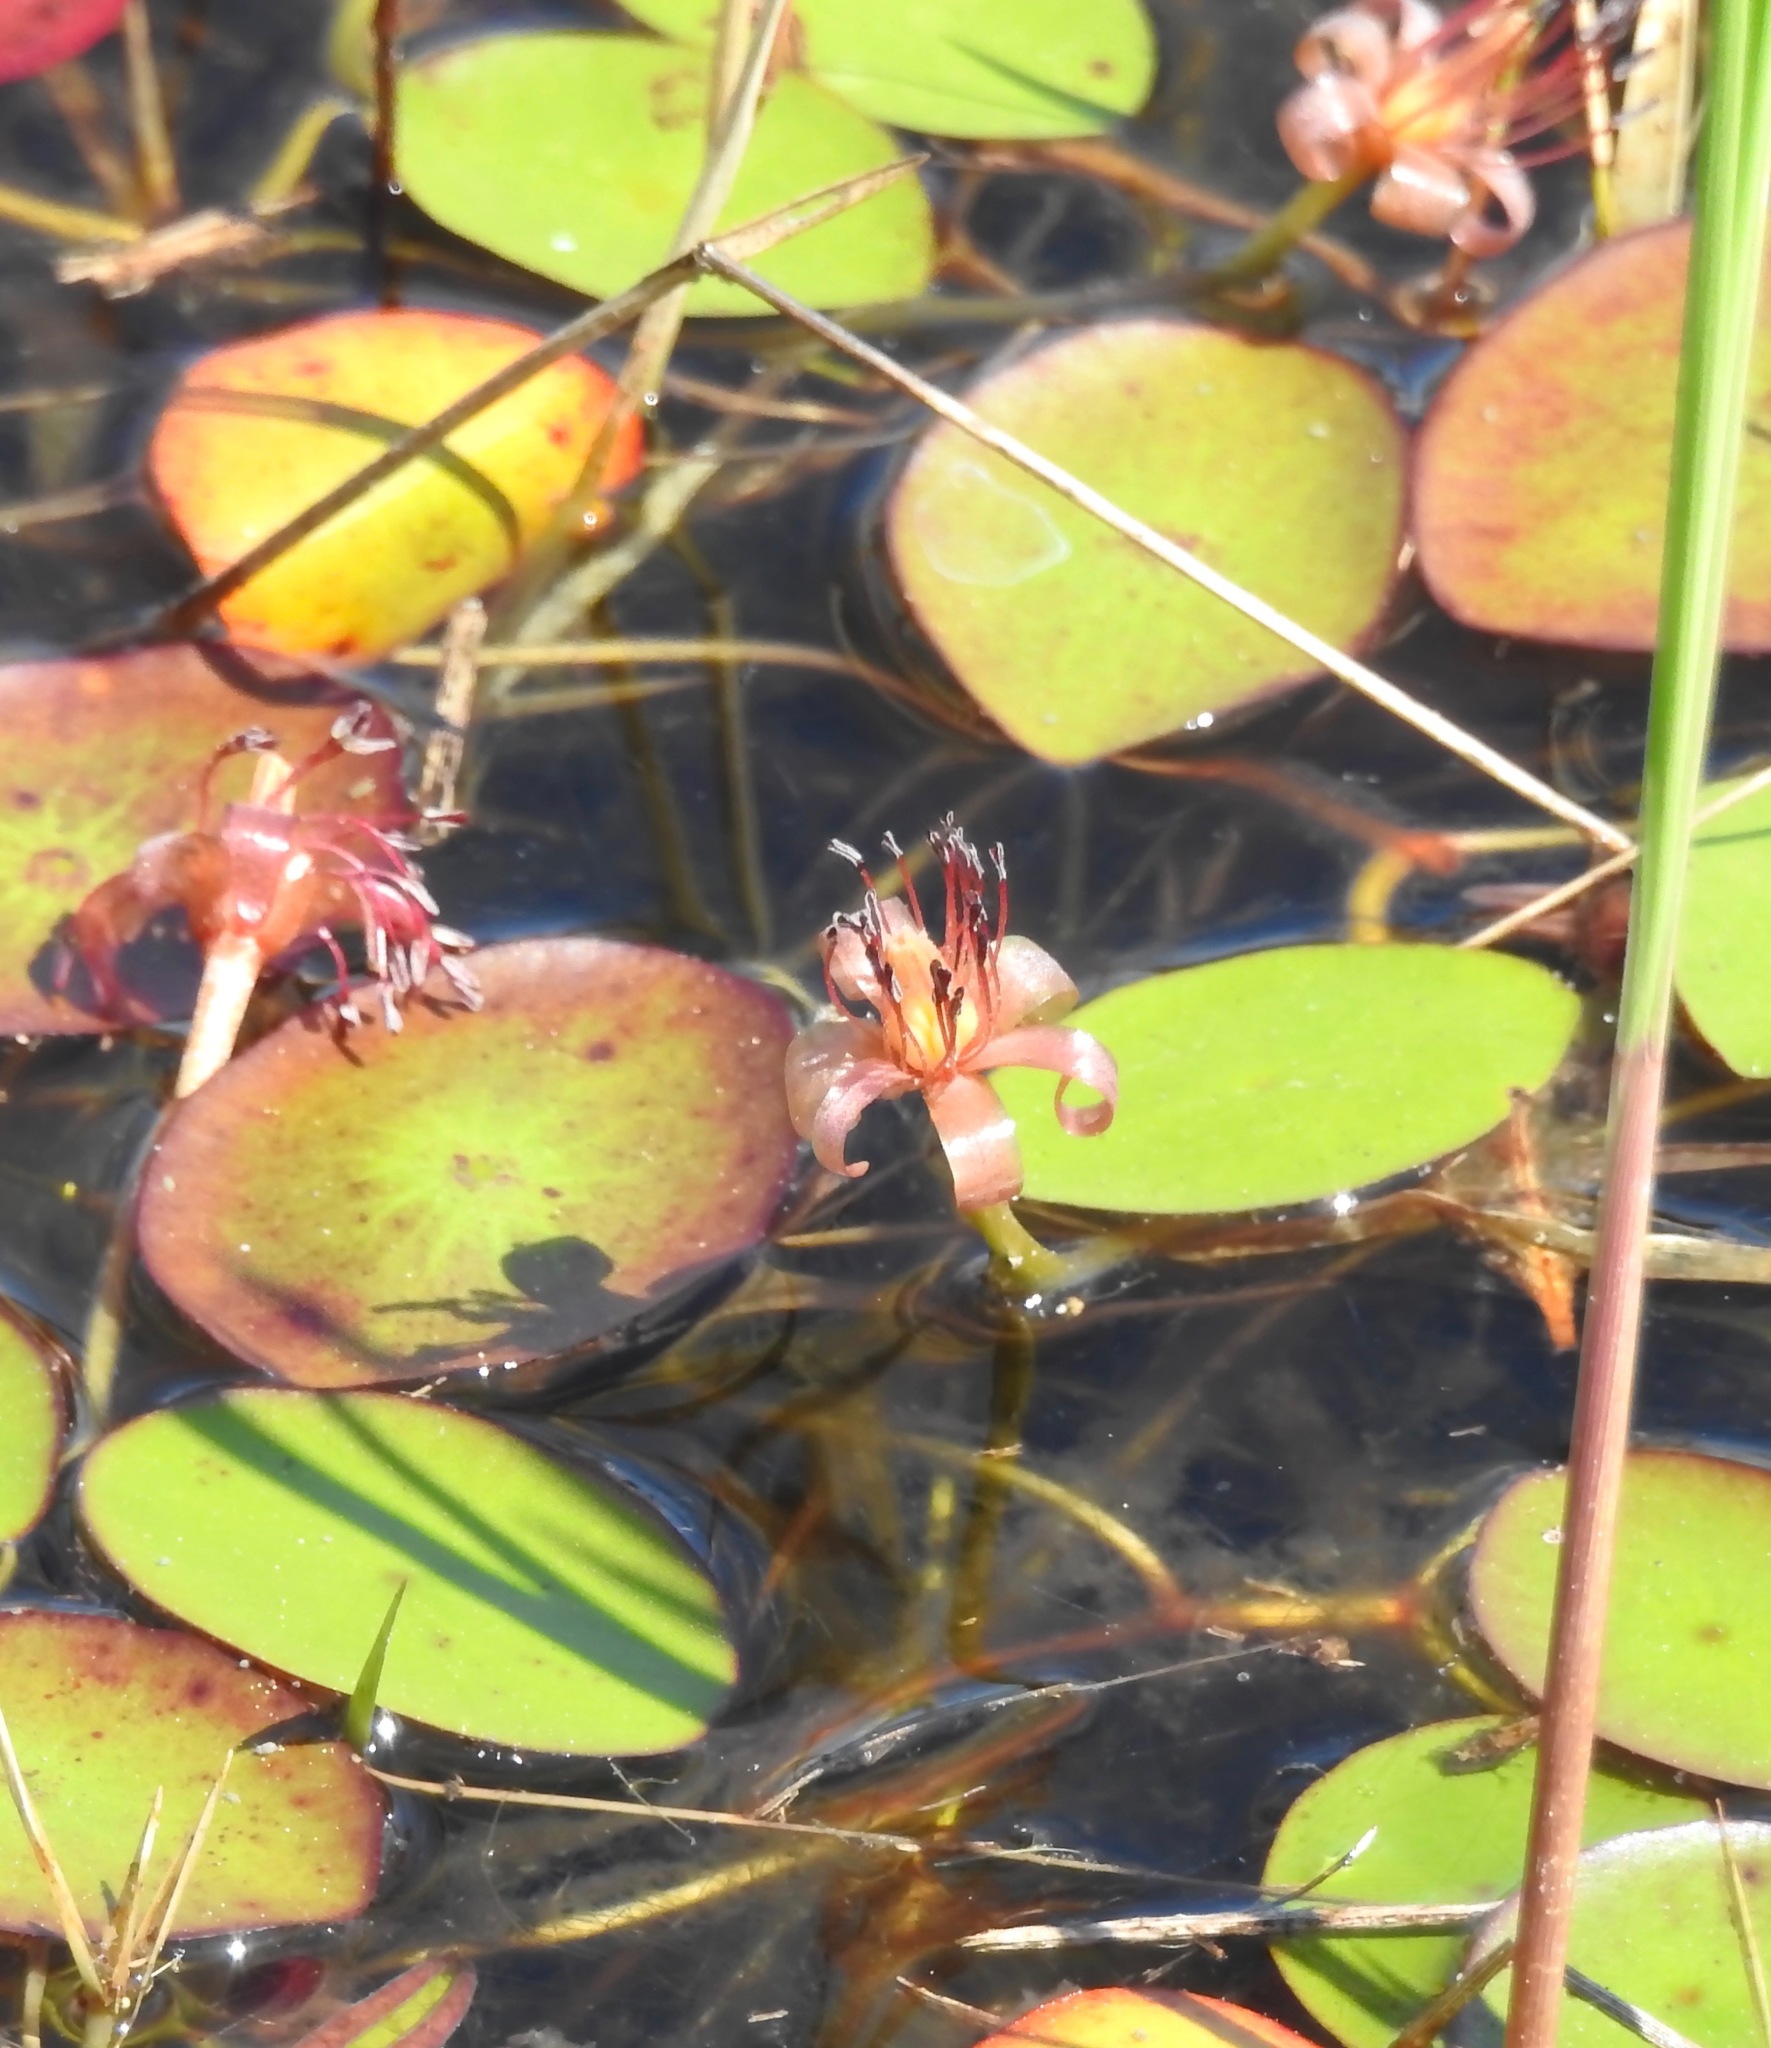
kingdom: Plantae
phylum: Tracheophyta
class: Magnoliopsida
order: Nymphaeales
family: Cabombaceae
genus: Brasenia
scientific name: Brasenia schreberi
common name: Water-shield
